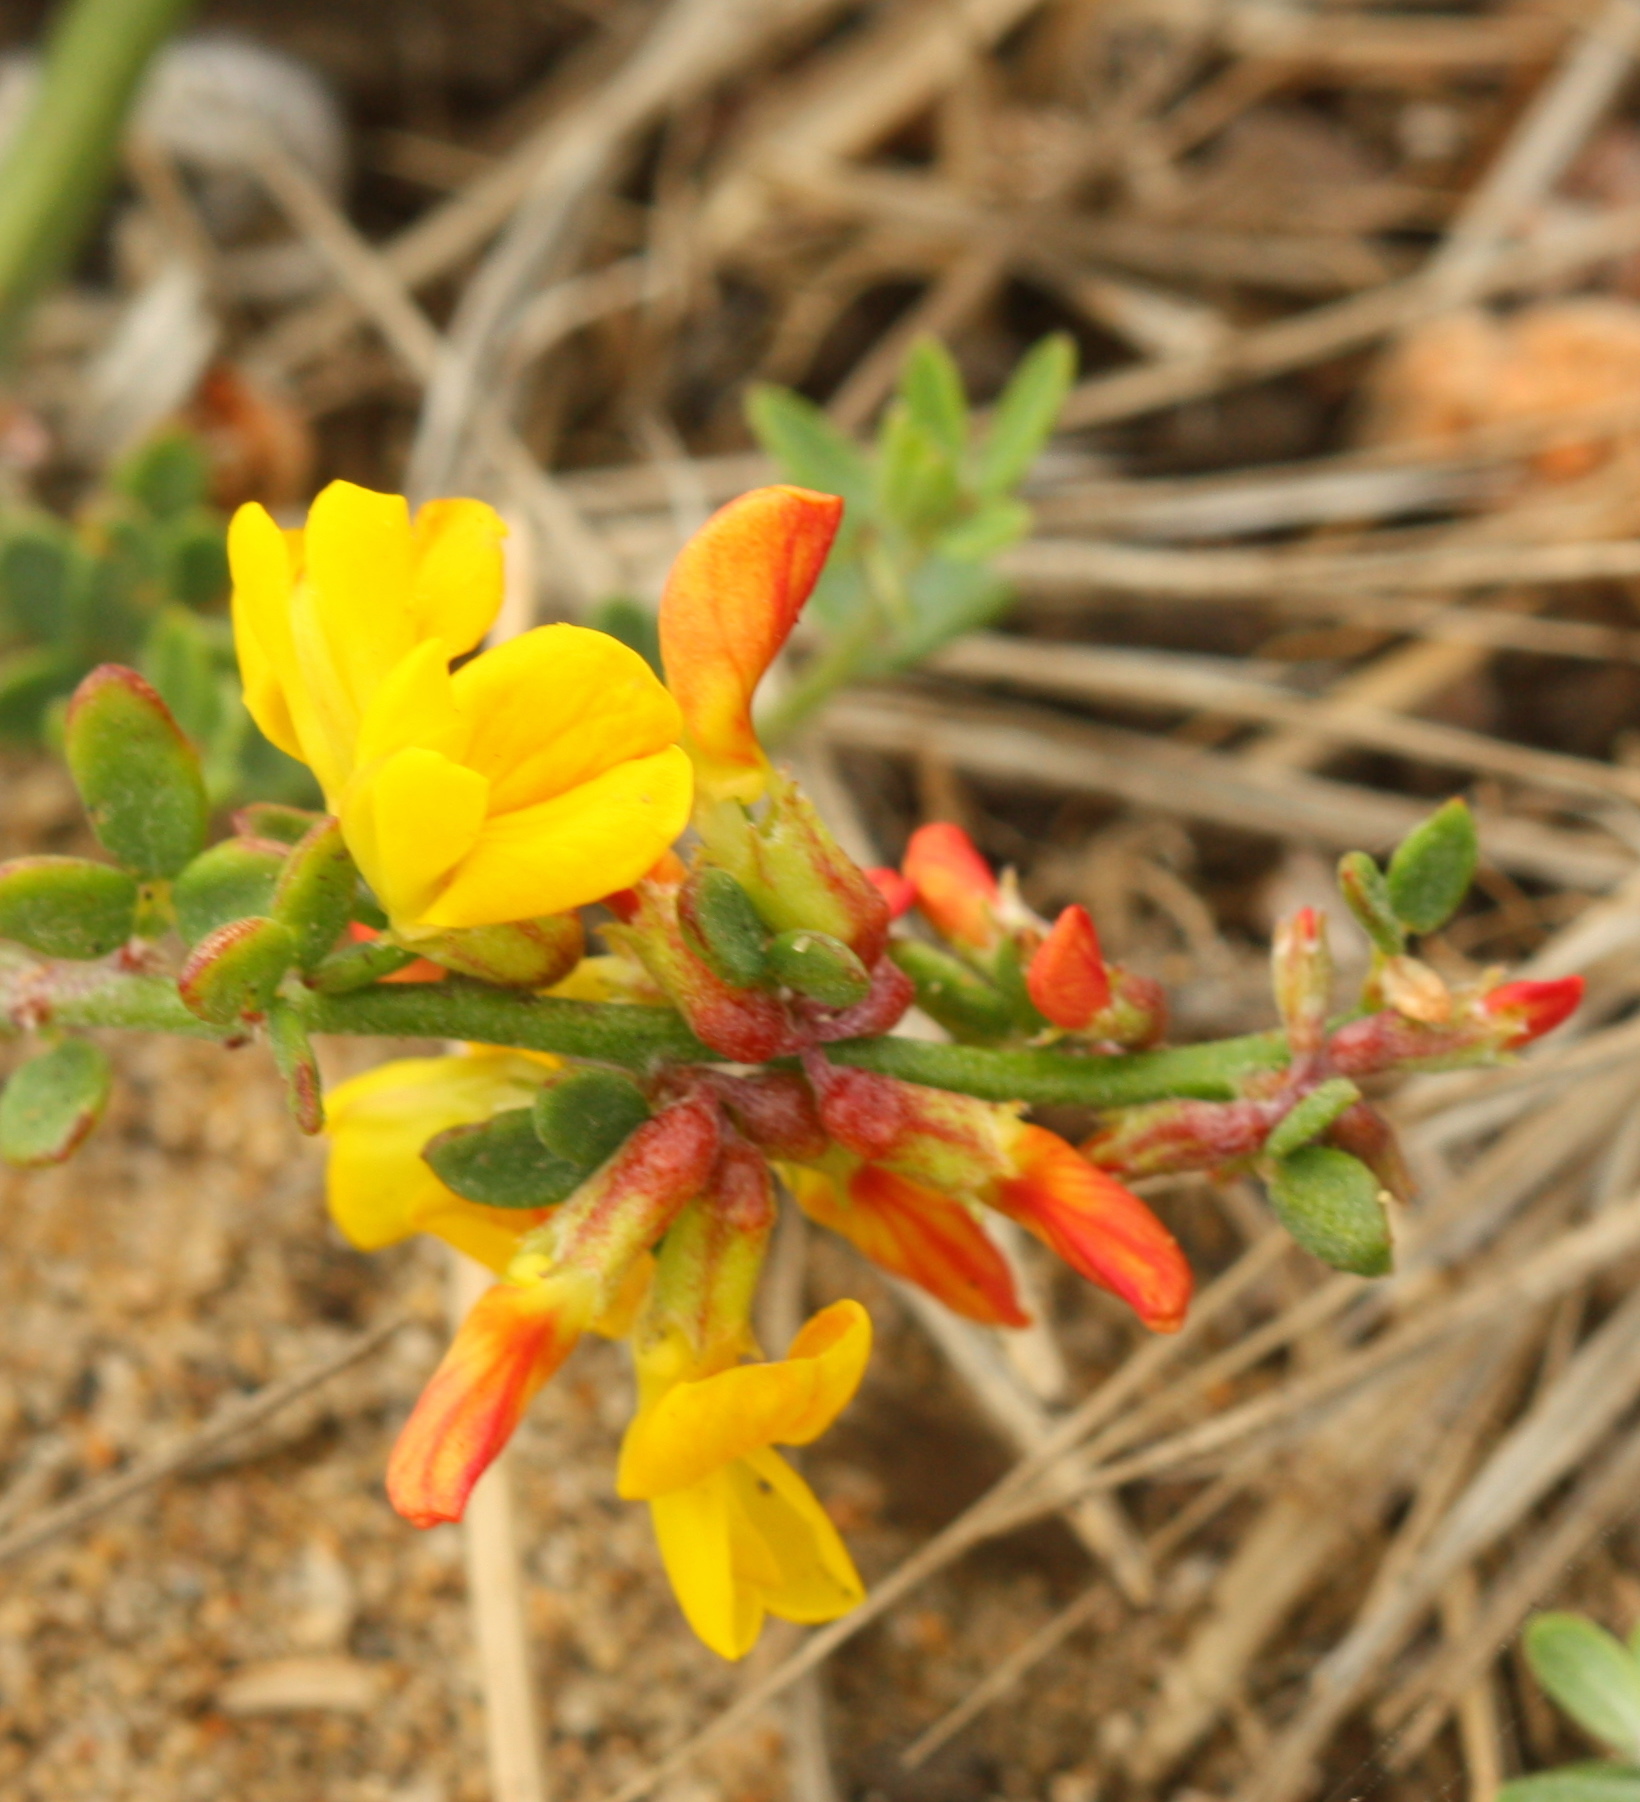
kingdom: Plantae
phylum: Tracheophyta
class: Magnoliopsida
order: Fabales
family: Fabaceae
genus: Acmispon
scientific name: Acmispon glaber
